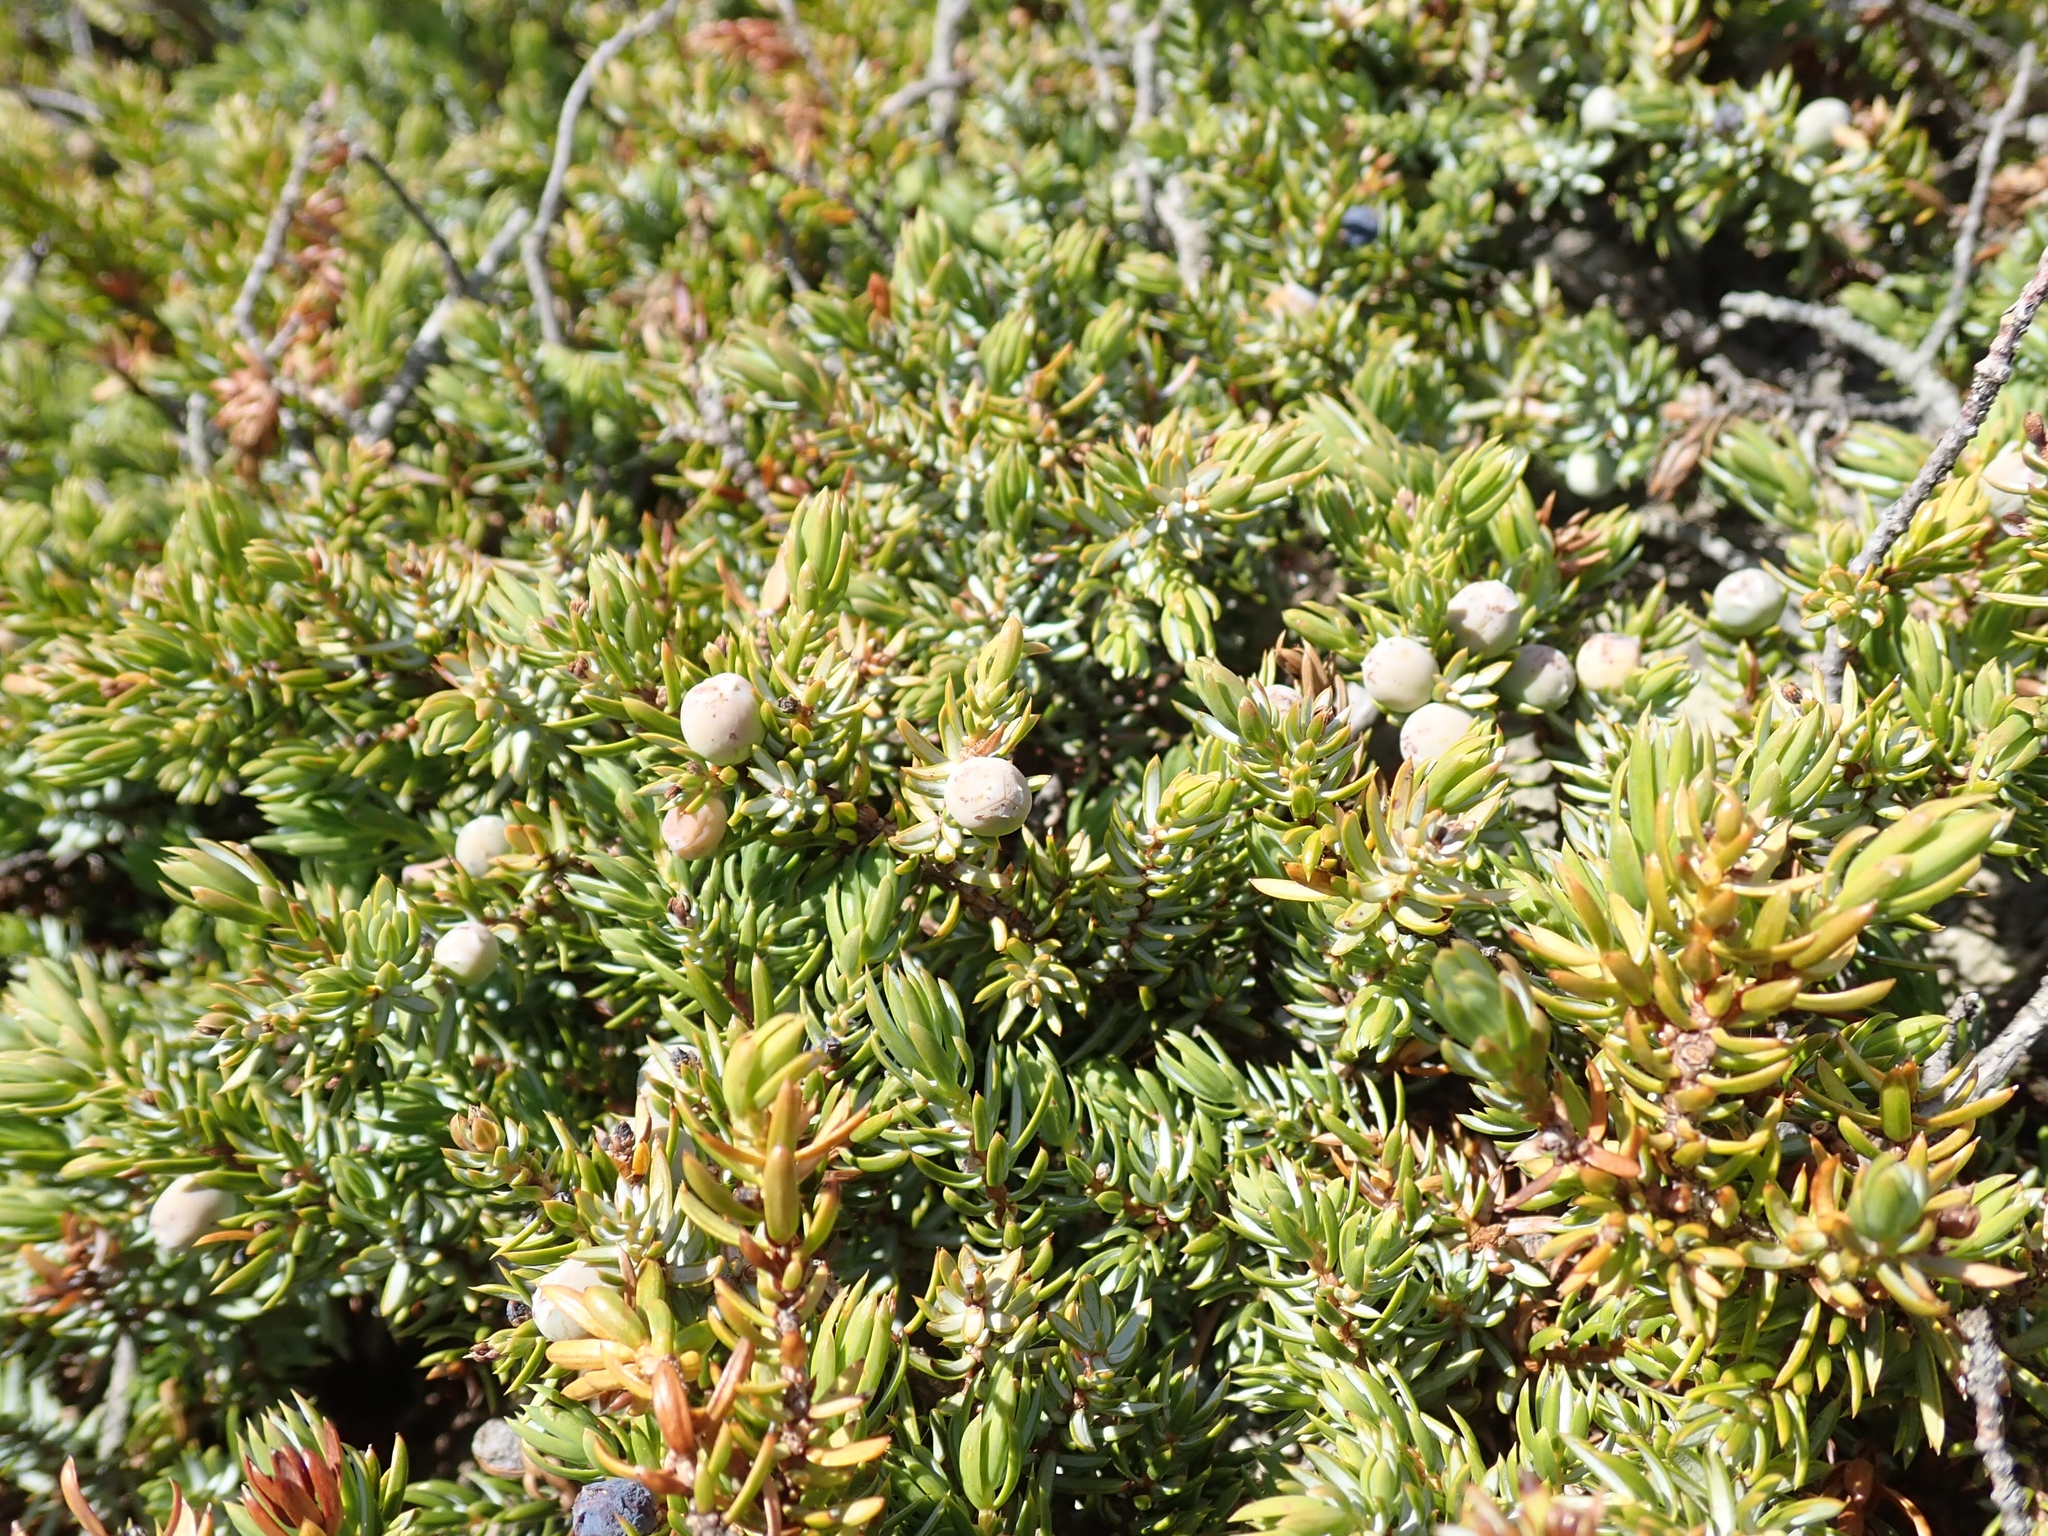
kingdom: Plantae
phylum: Tracheophyta
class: Pinopsida
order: Pinales
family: Cupressaceae
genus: Juniperus
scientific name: Juniperus communis
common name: Common juniper
